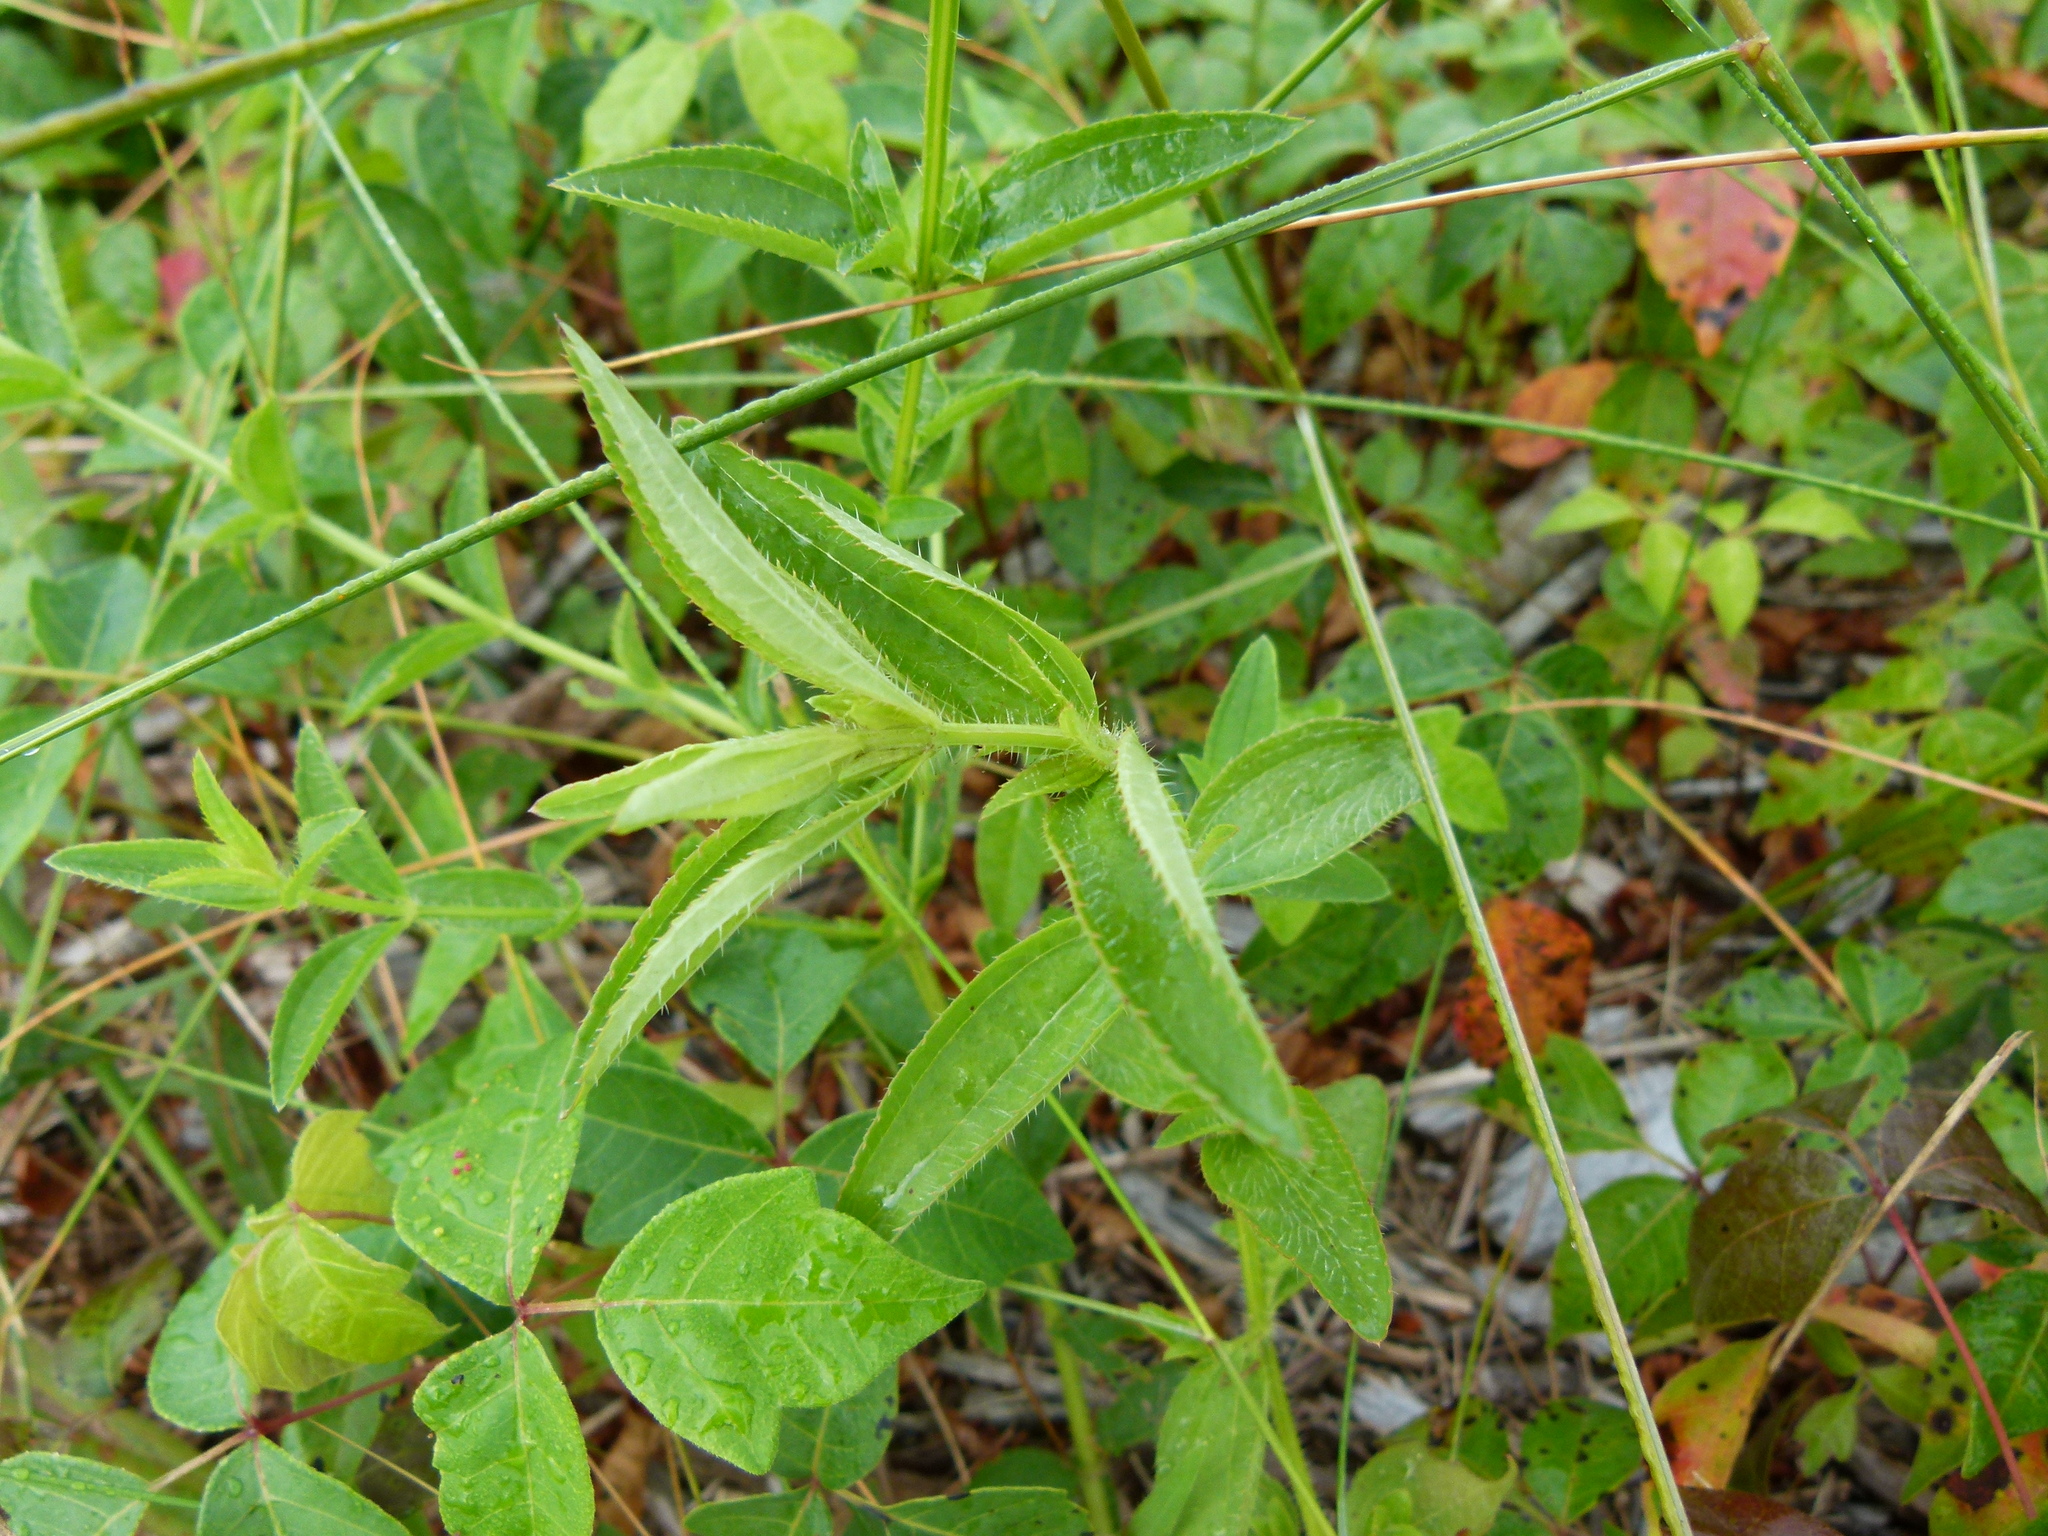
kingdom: Plantae
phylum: Tracheophyta
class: Magnoliopsida
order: Myrtales
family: Melastomataceae
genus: Rhexia
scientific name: Rhexia mariana
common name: Dull meadow-pitcher
